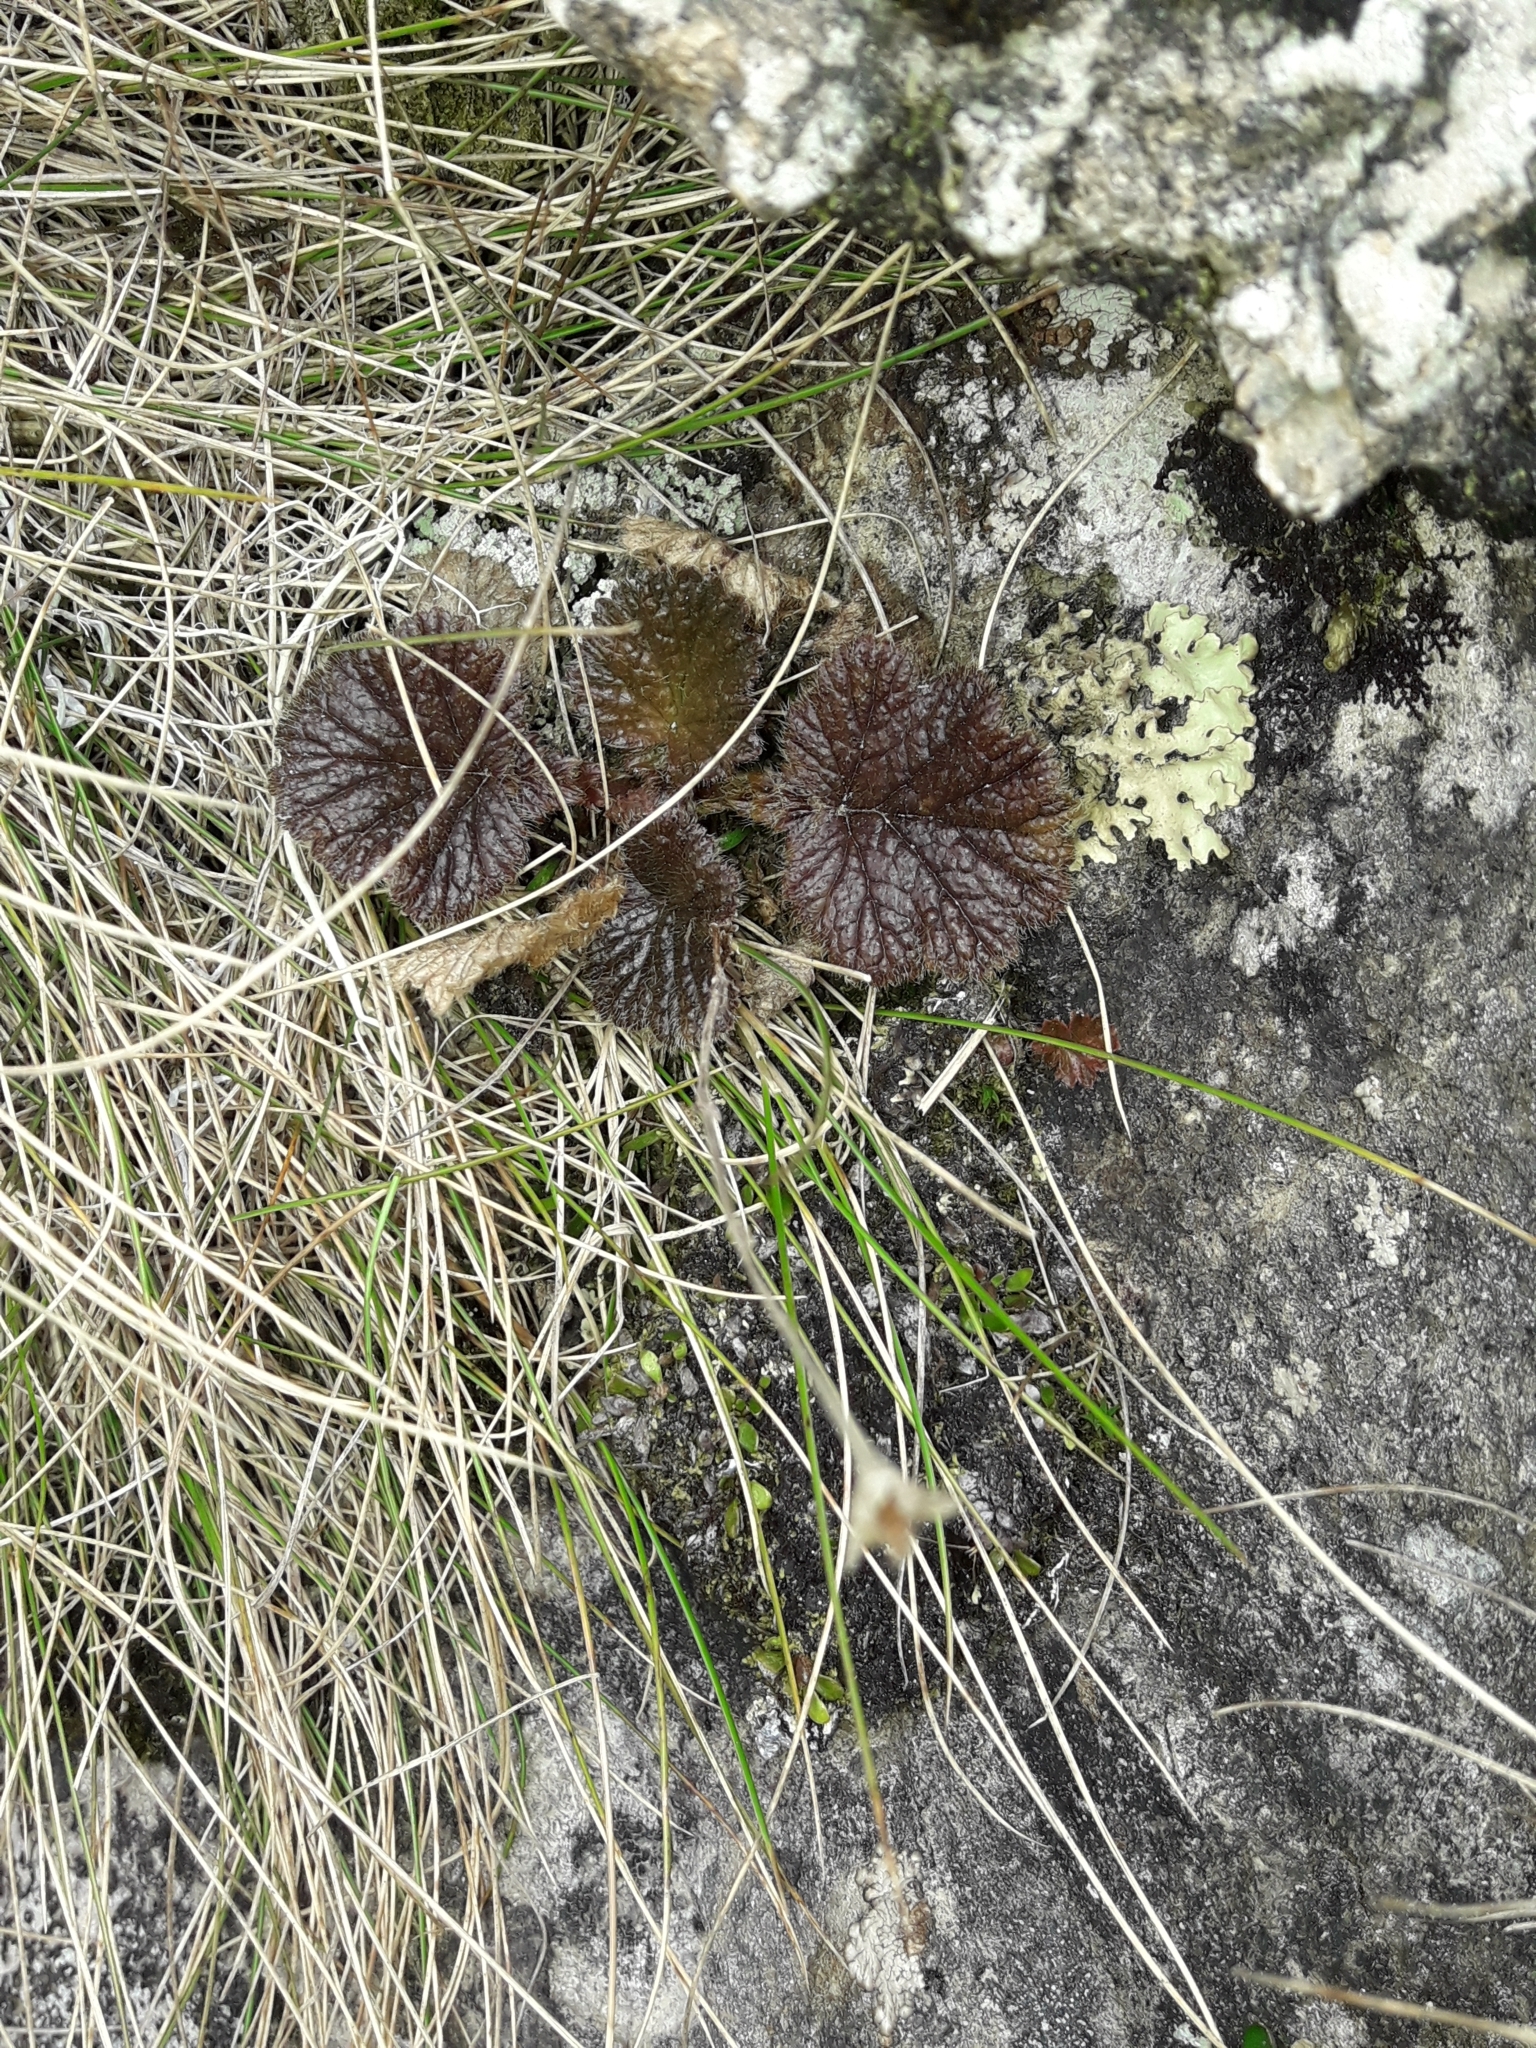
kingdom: Plantae
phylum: Tracheophyta
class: Magnoliopsida
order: Rosales
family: Rosaceae
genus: Geum
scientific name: Geum cockaynei
